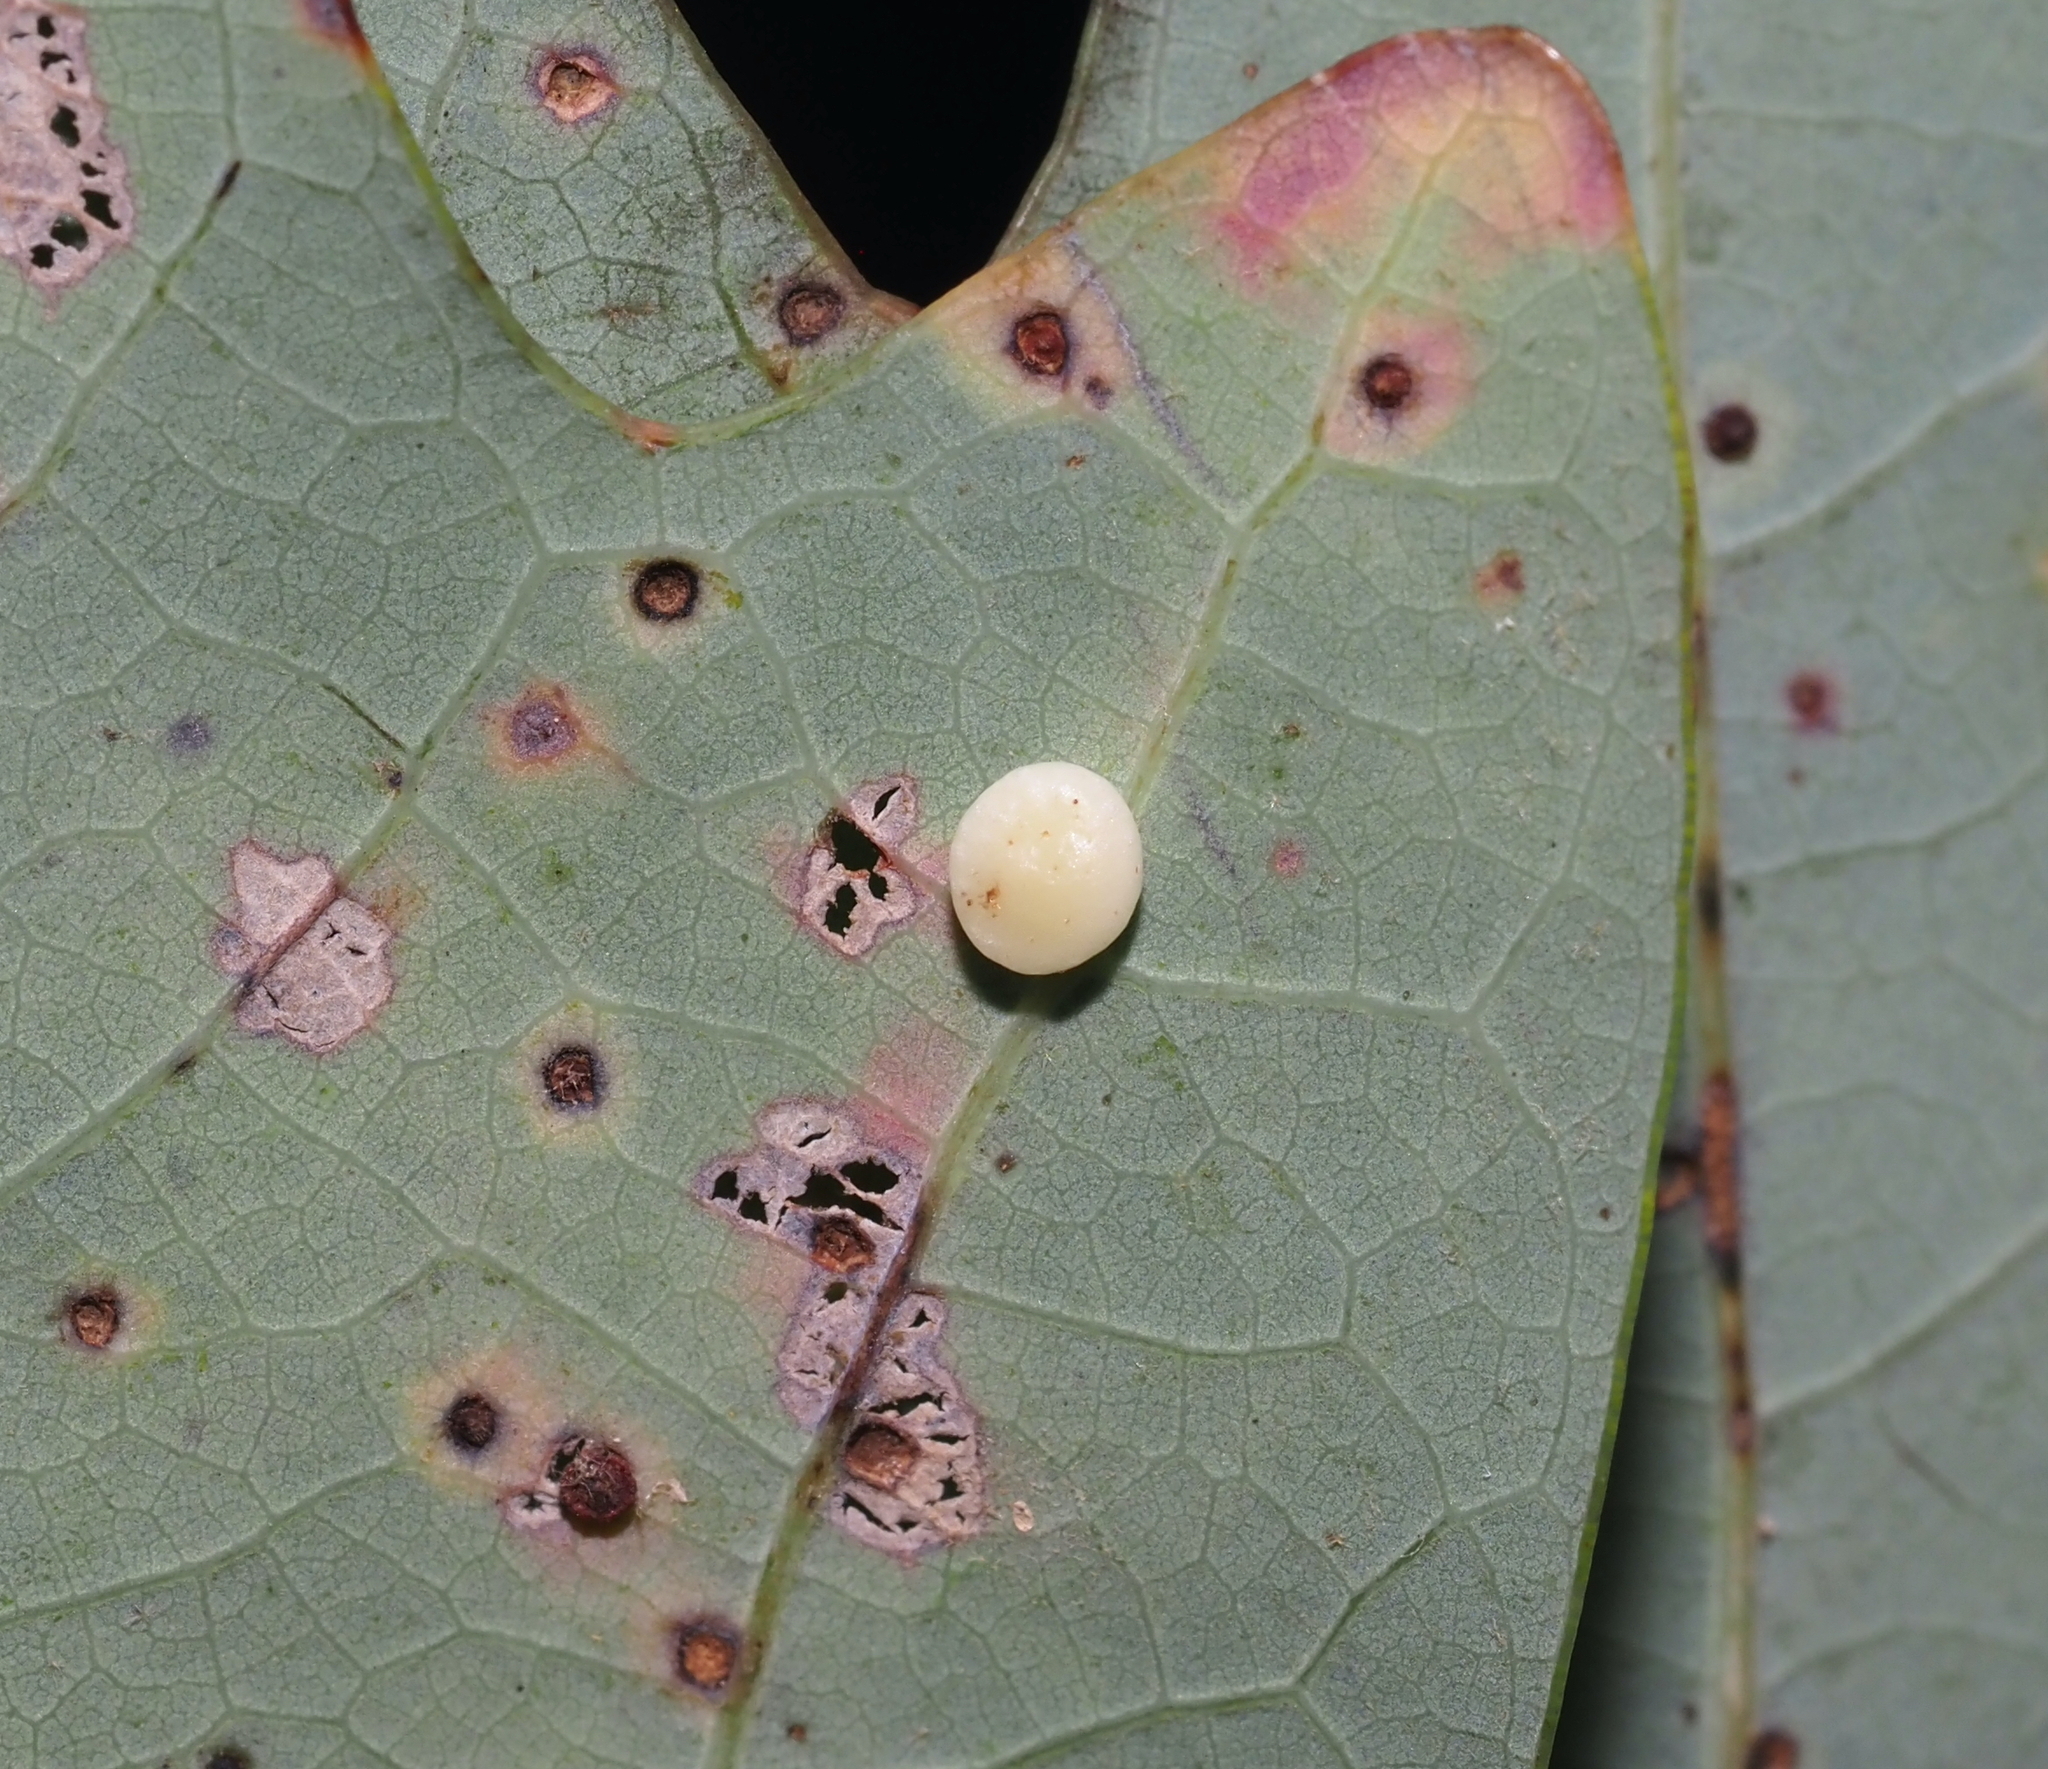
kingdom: Animalia
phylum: Arthropoda
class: Insecta
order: Hymenoptera
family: Cynipidae
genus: Phylloteras
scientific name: Phylloteras
